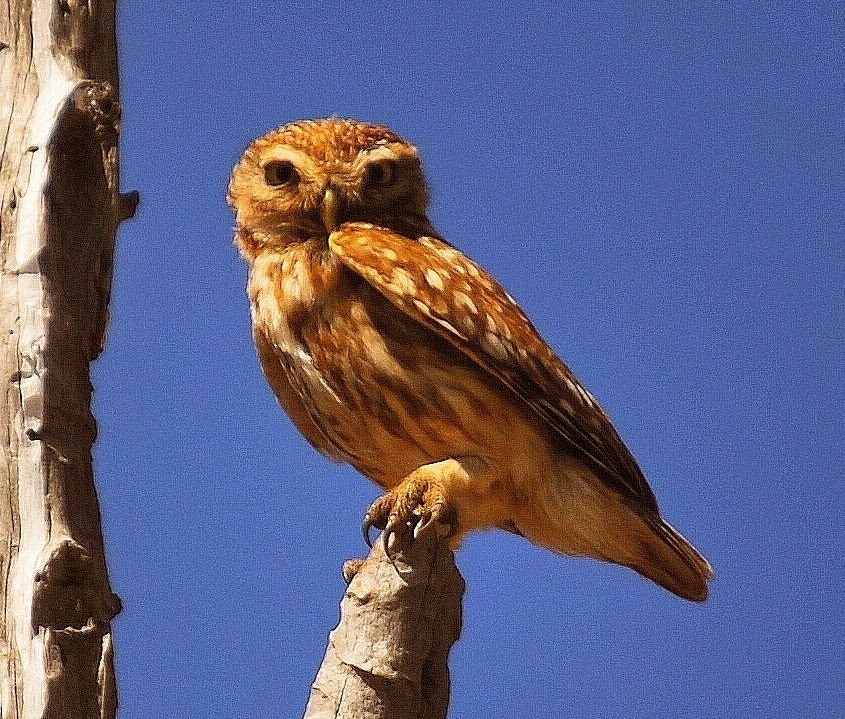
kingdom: Animalia
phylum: Chordata
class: Aves
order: Strigiformes
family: Strigidae
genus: Athene
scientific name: Athene noctua
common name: Little owl
